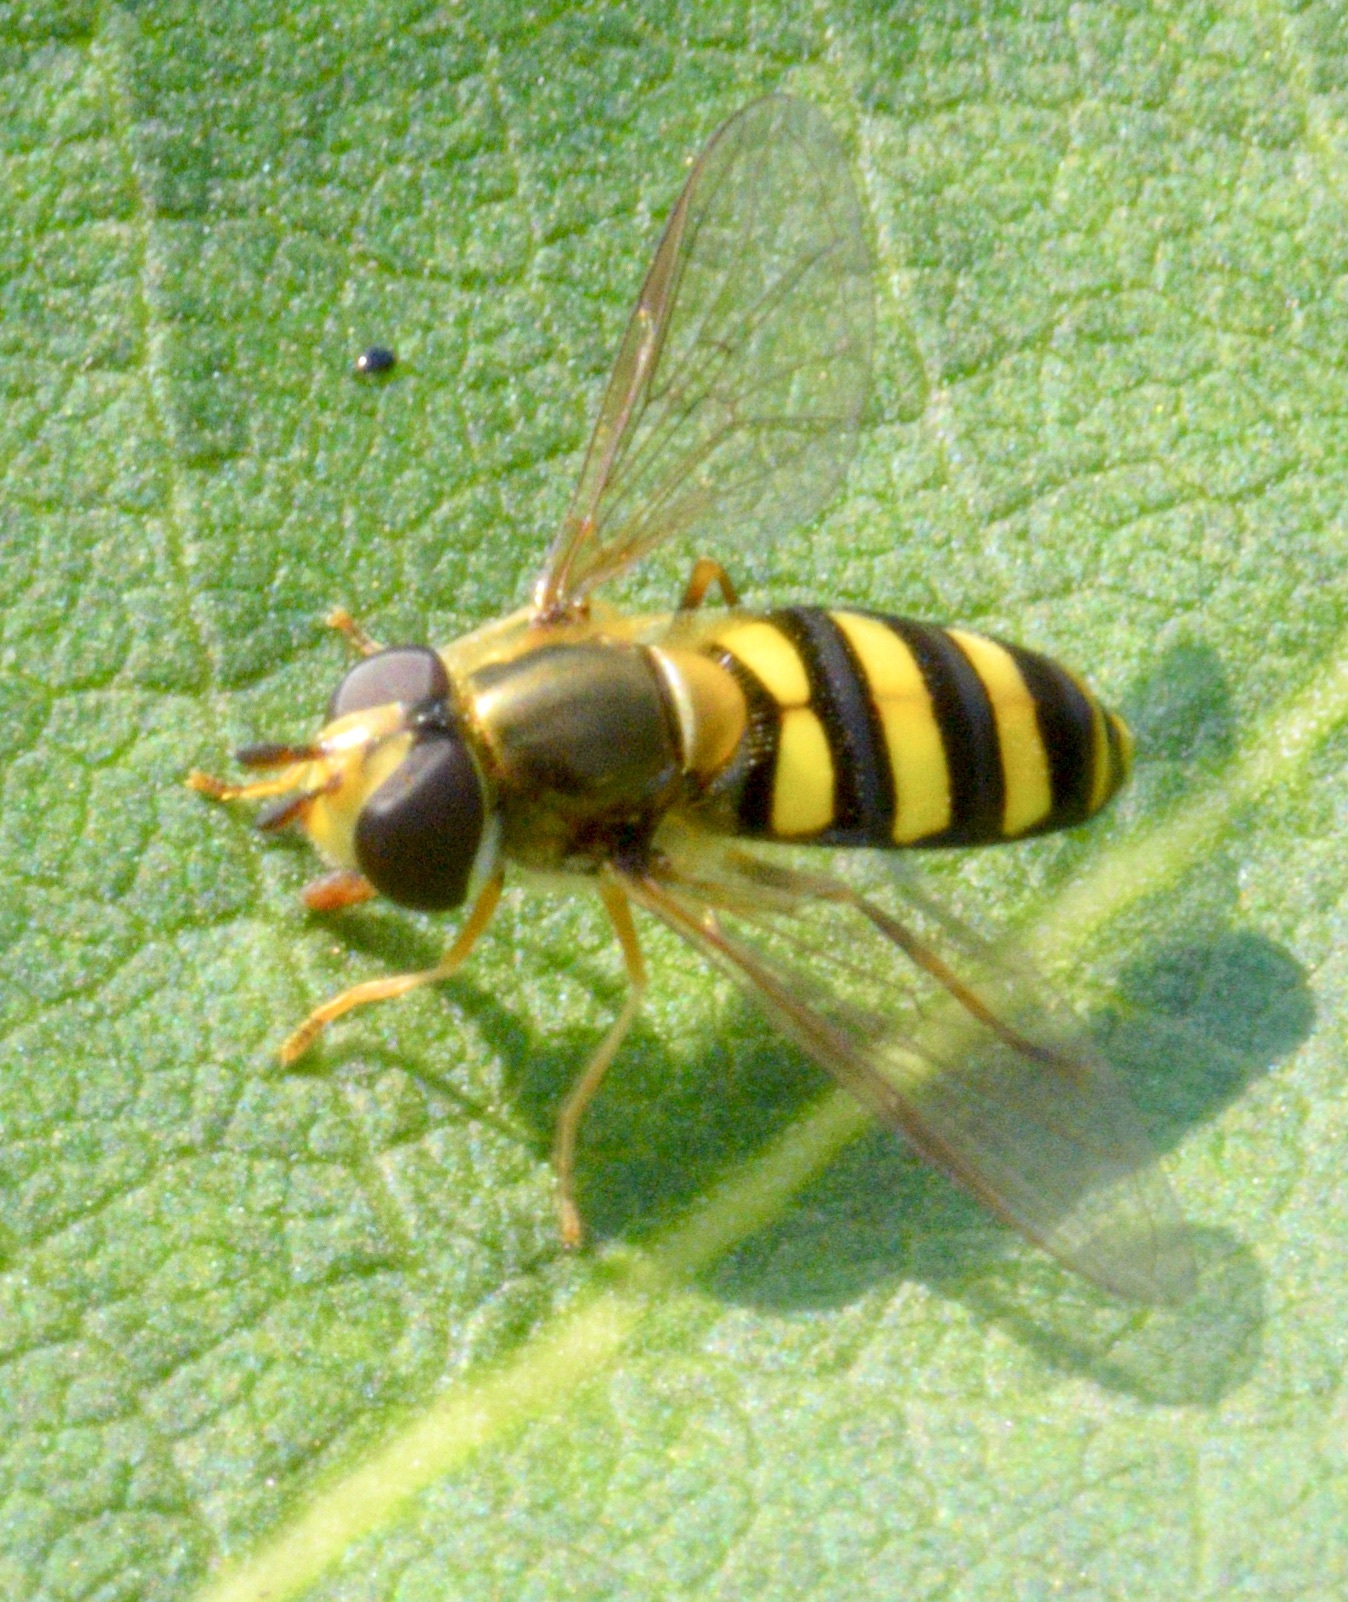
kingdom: Animalia
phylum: Arthropoda
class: Insecta
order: Diptera
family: Syrphidae
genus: Eupeodes
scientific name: Eupeodes
